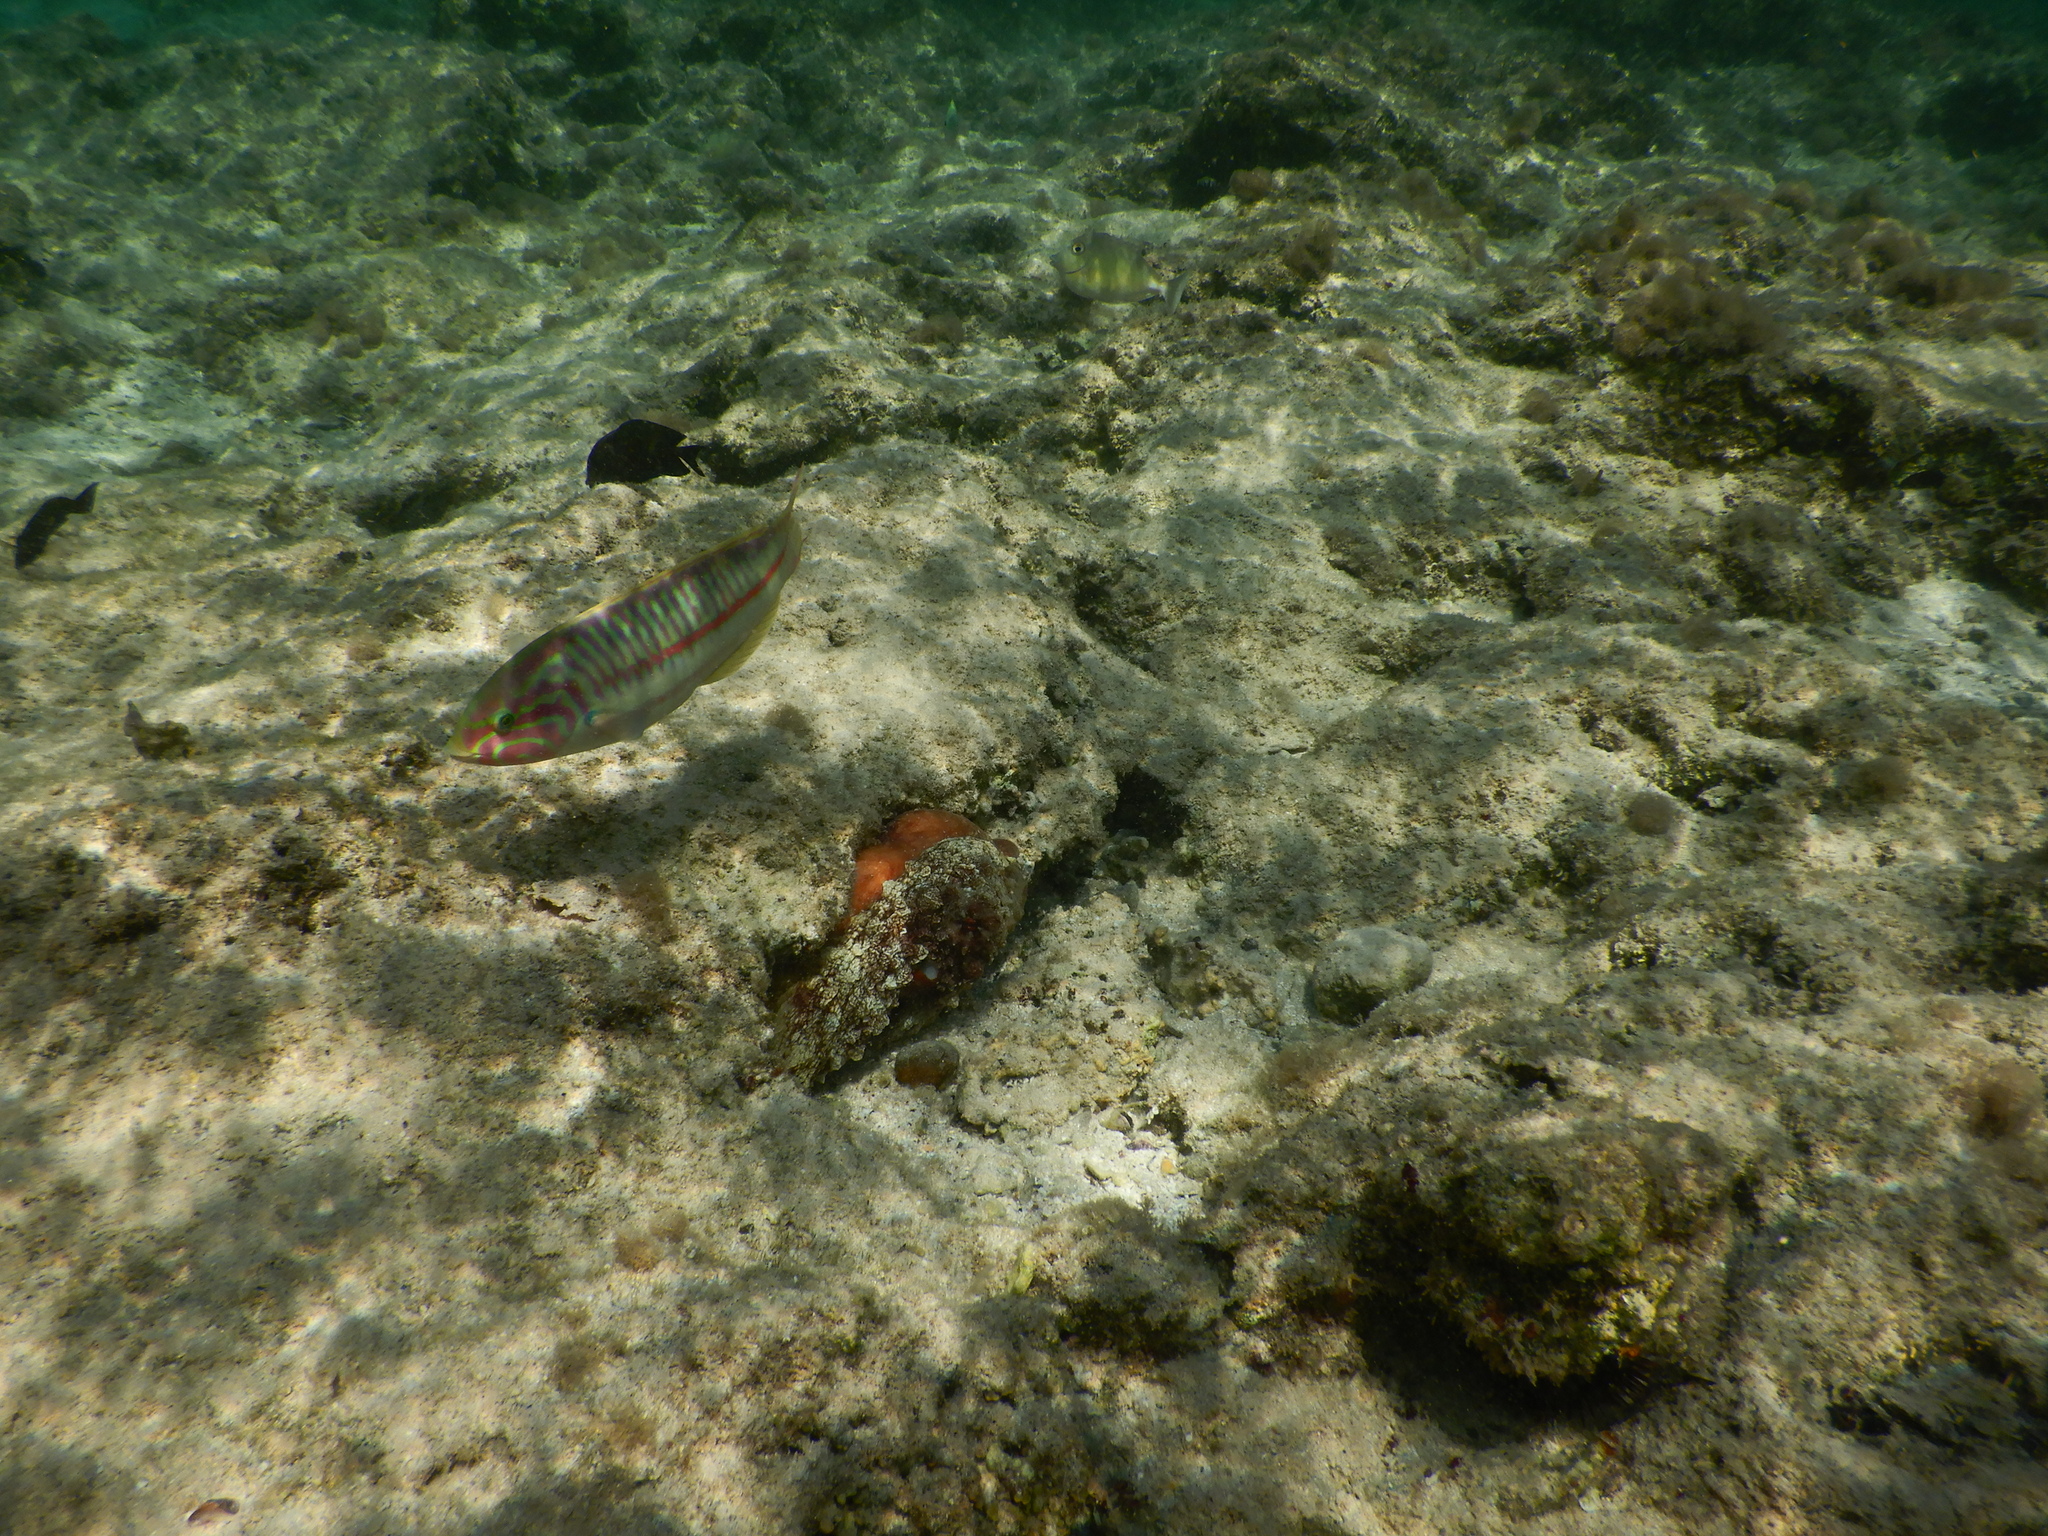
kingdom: Animalia
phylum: Chordata
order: Perciformes
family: Labridae
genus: Thalassoma
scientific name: Thalassoma rueppellii
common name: Klunzinger's wrasse
